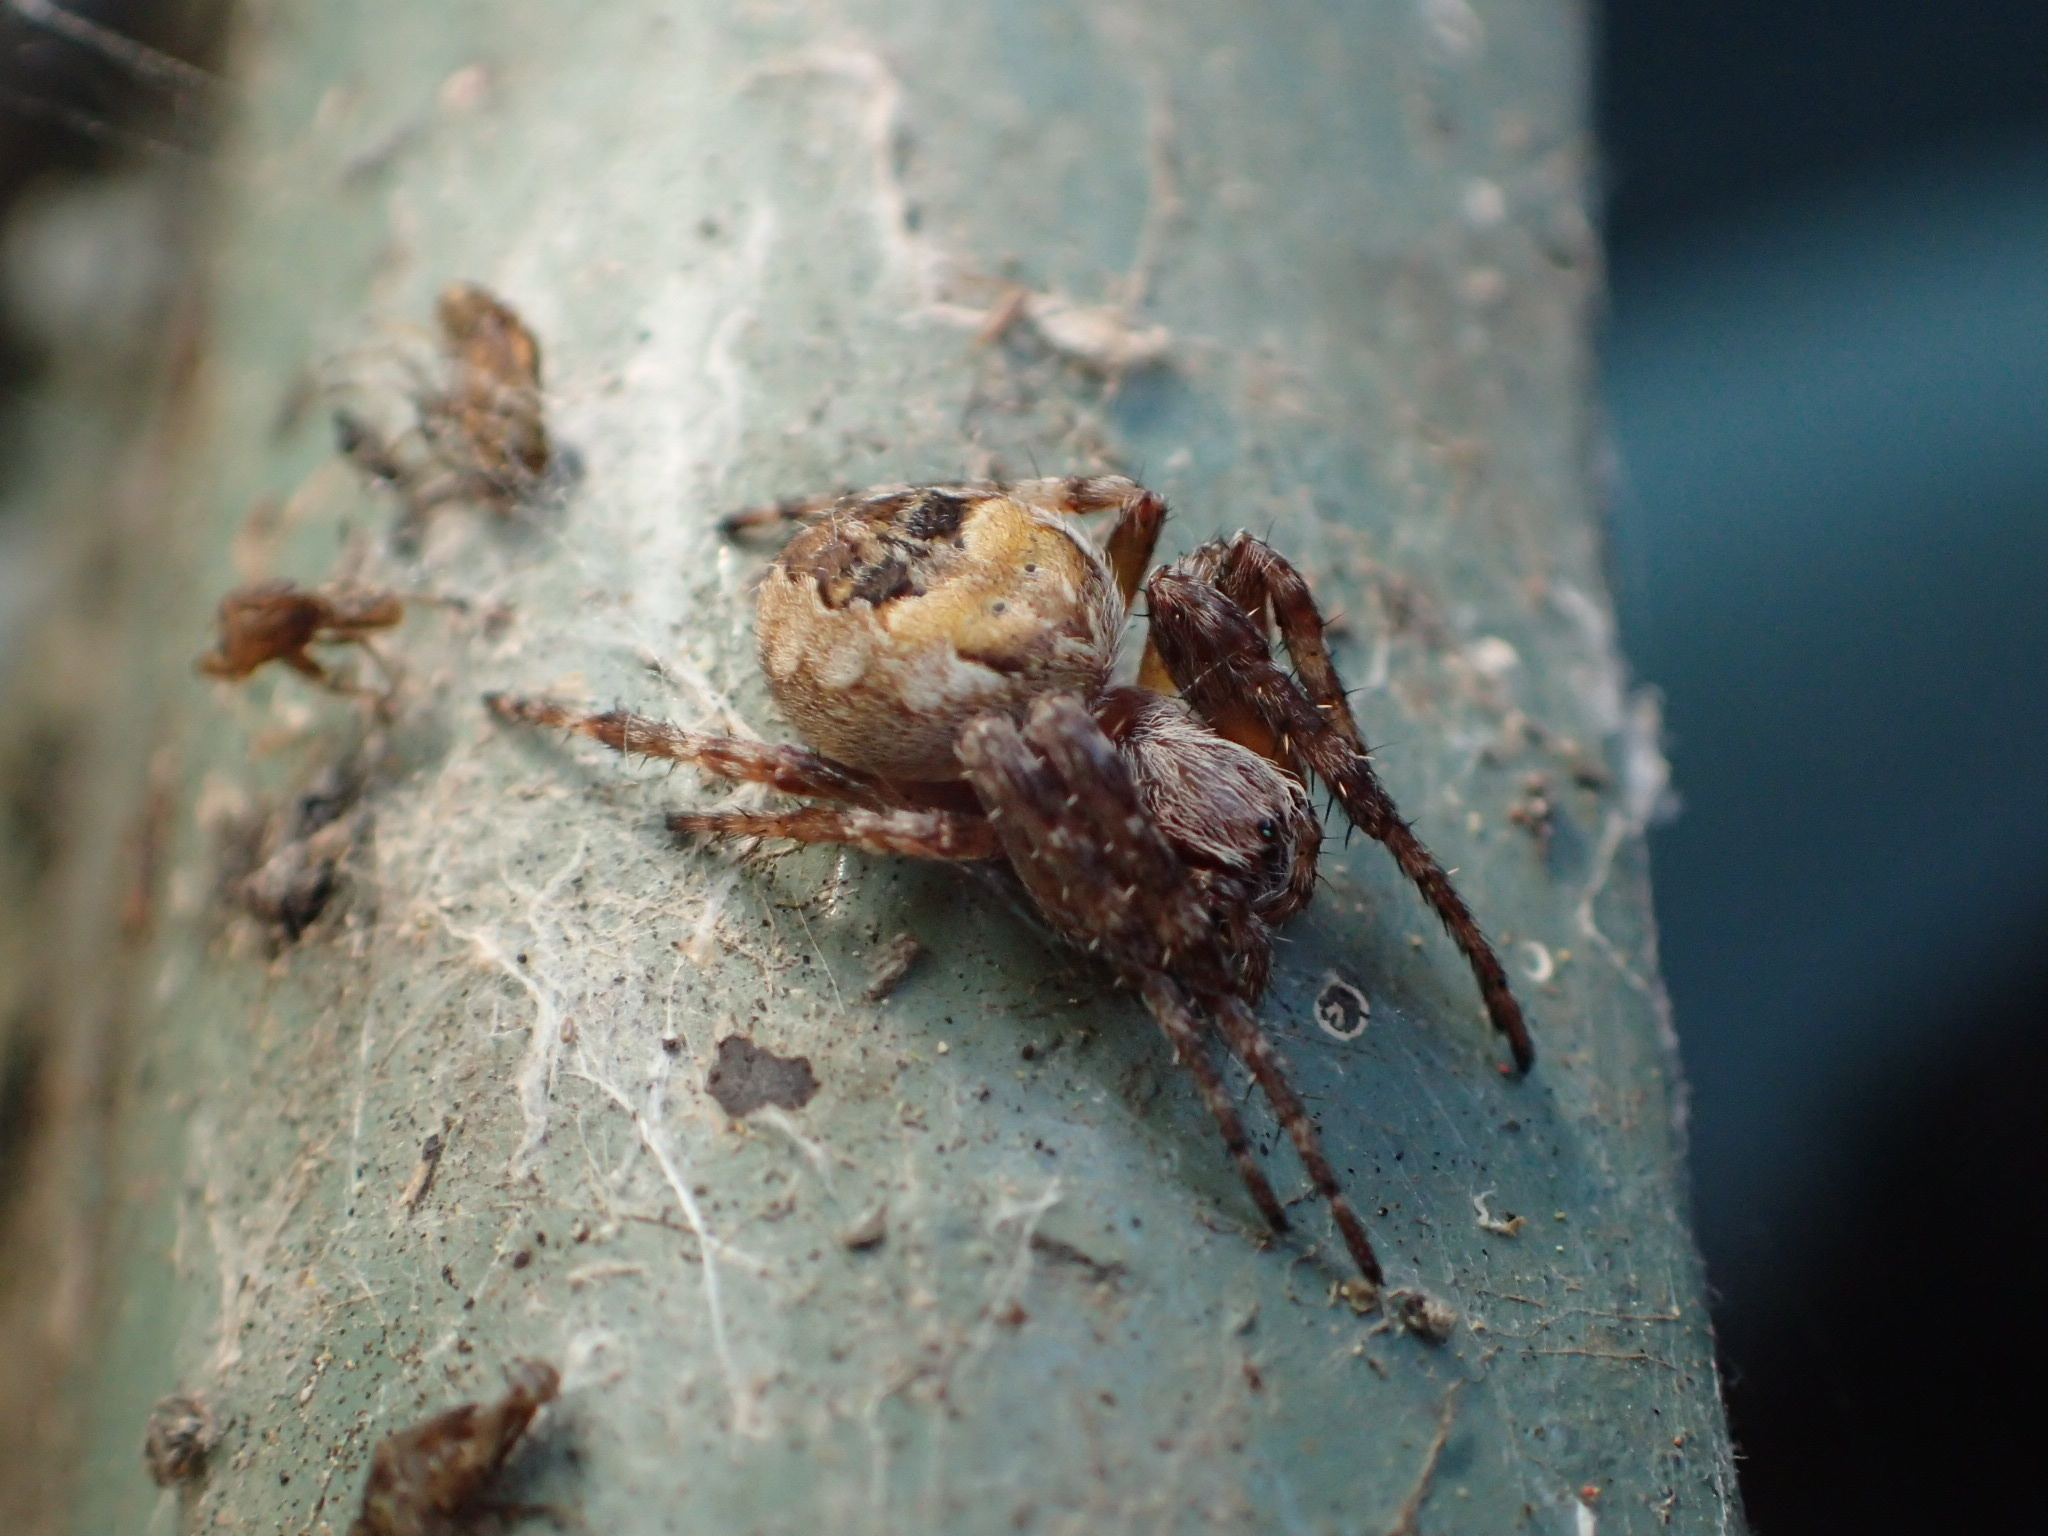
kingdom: Animalia
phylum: Arthropoda
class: Arachnida
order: Araneae
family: Araneidae
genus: Larinioides
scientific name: Larinioides patagiatus
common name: Ornamental orbweaver
